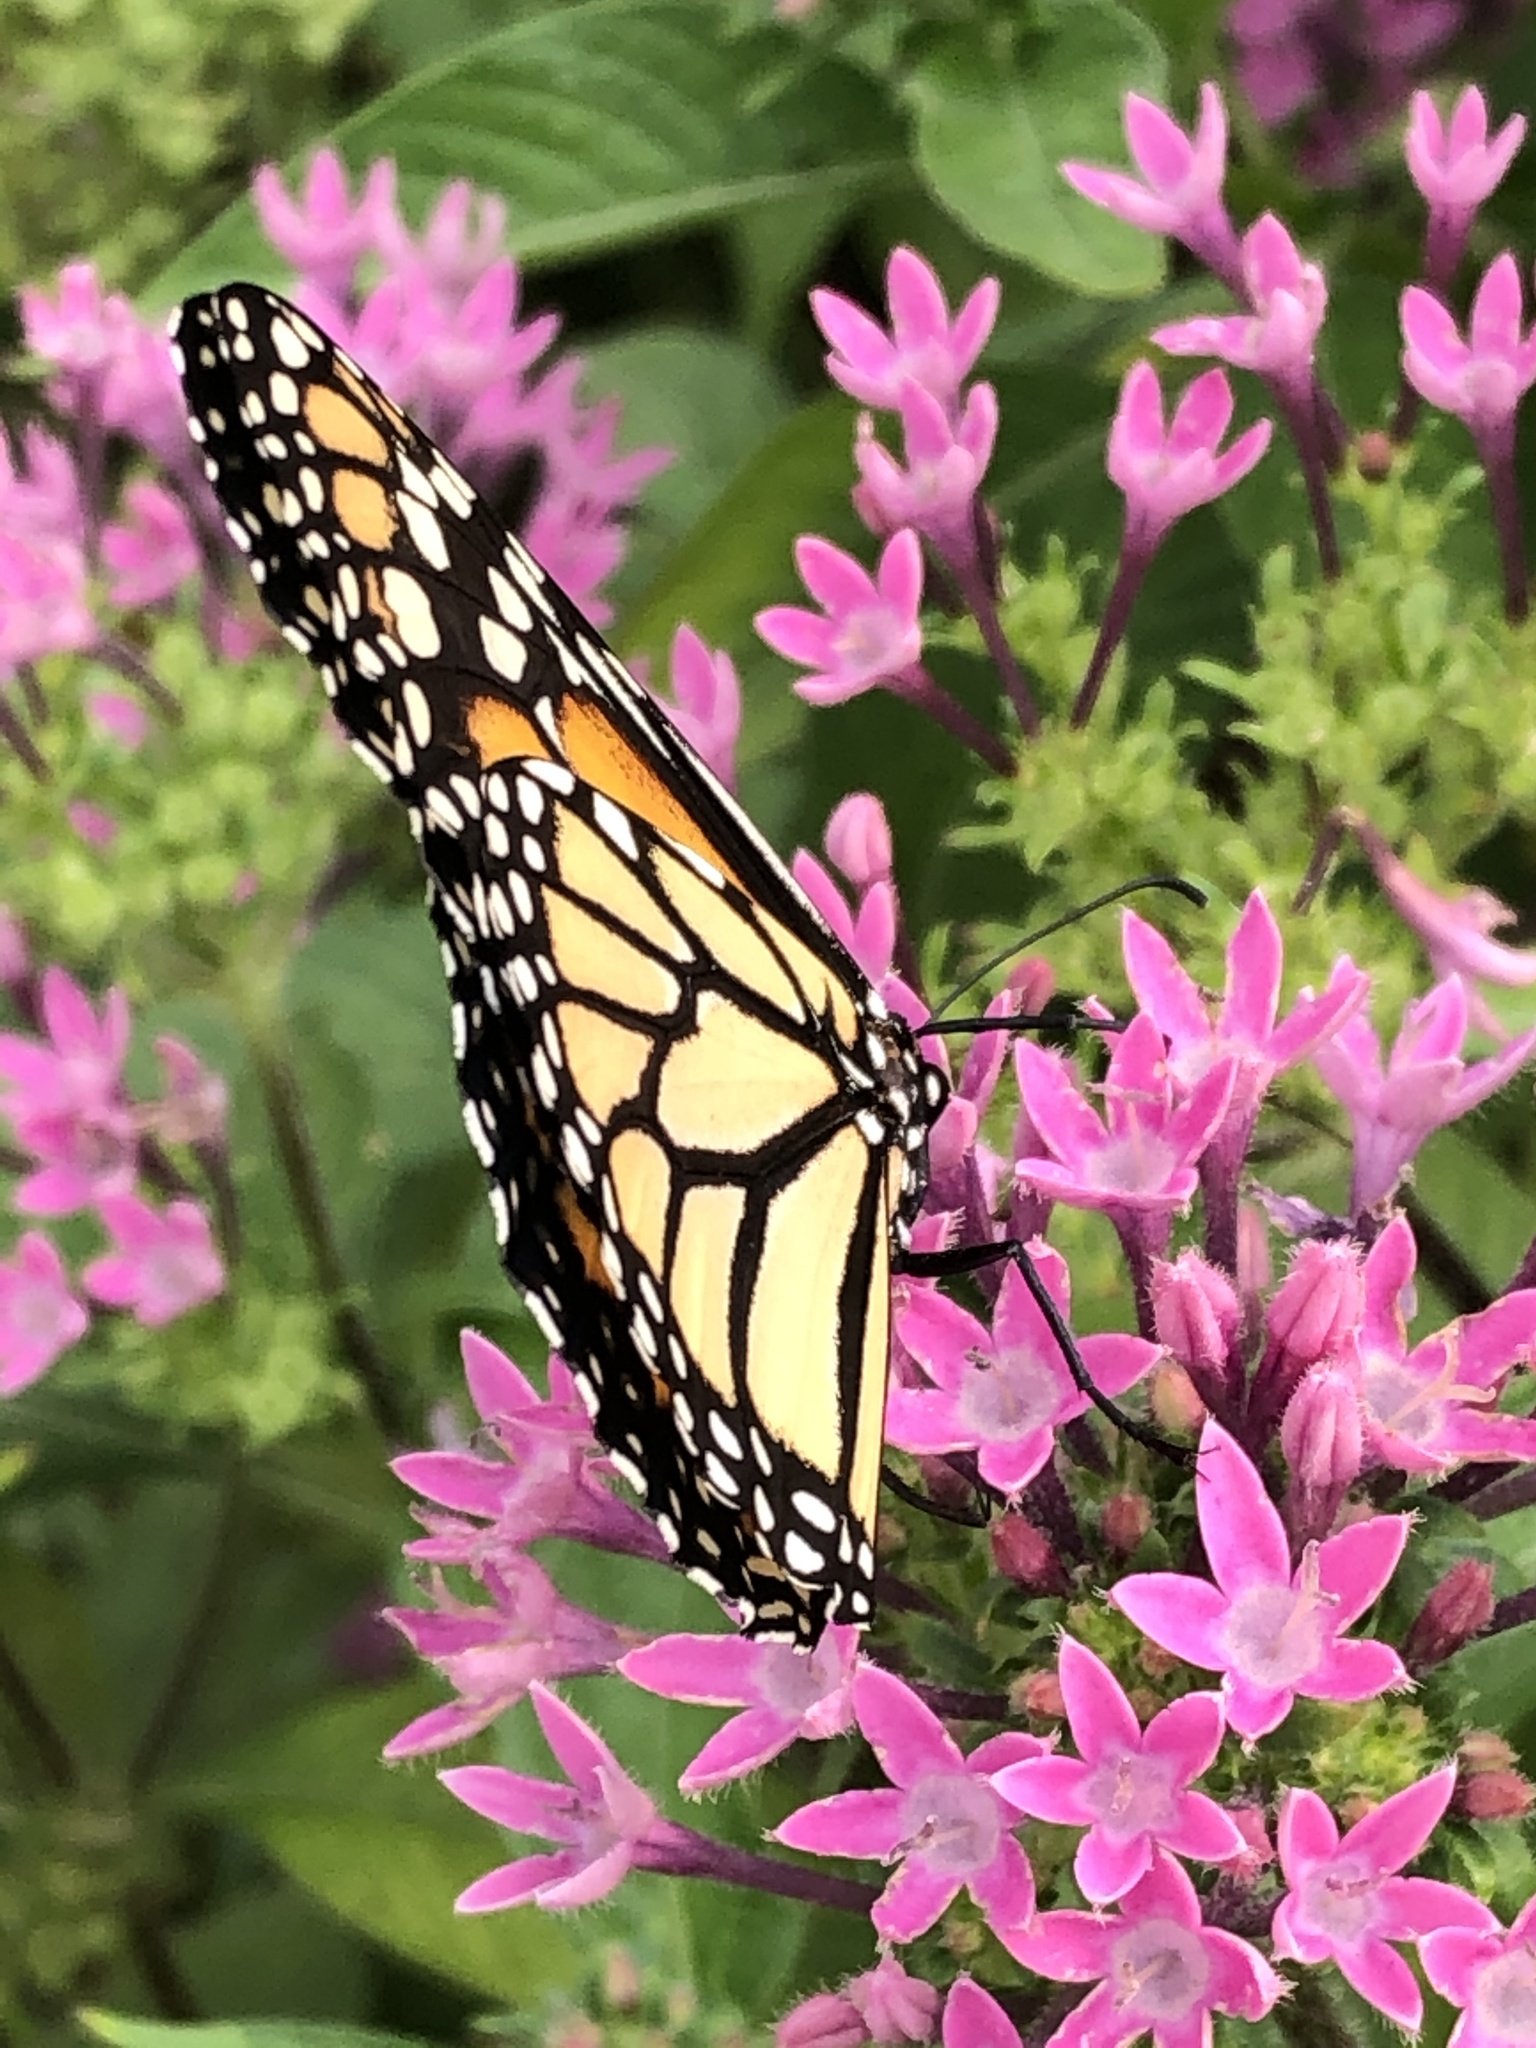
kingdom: Animalia
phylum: Arthropoda
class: Insecta
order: Lepidoptera
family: Nymphalidae
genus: Danaus
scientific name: Danaus plexippus
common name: Monarch
